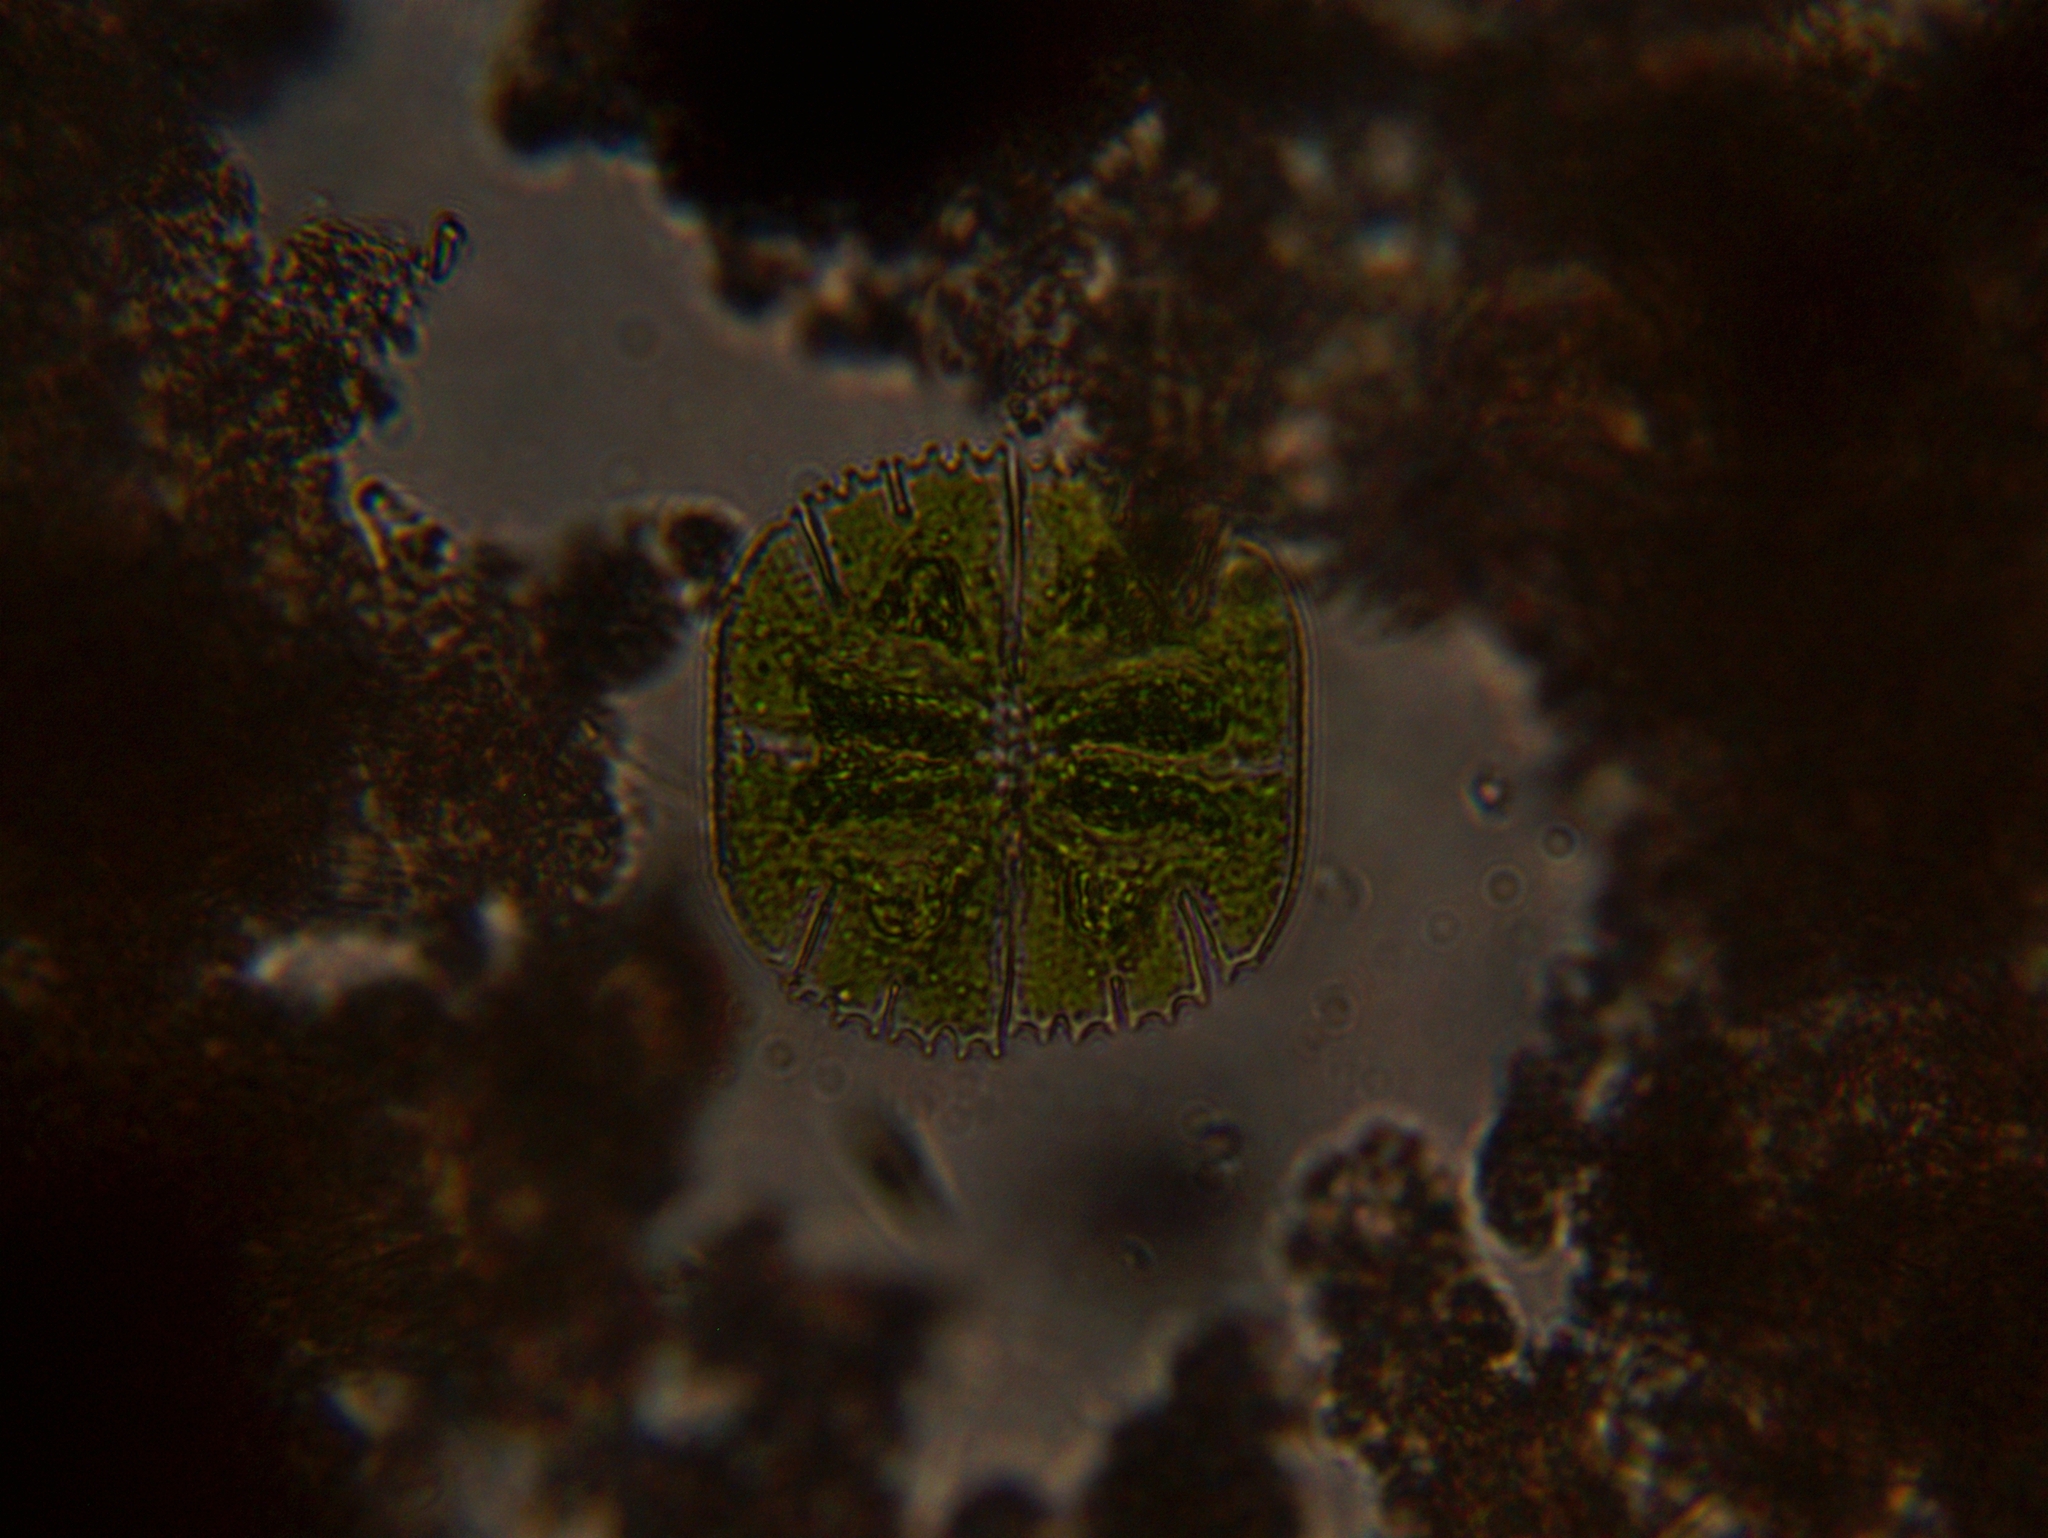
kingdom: Plantae
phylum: Charophyta
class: Conjugatophyceae
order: Desmidiales
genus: Micrasterias
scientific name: Micrasterias truncata
